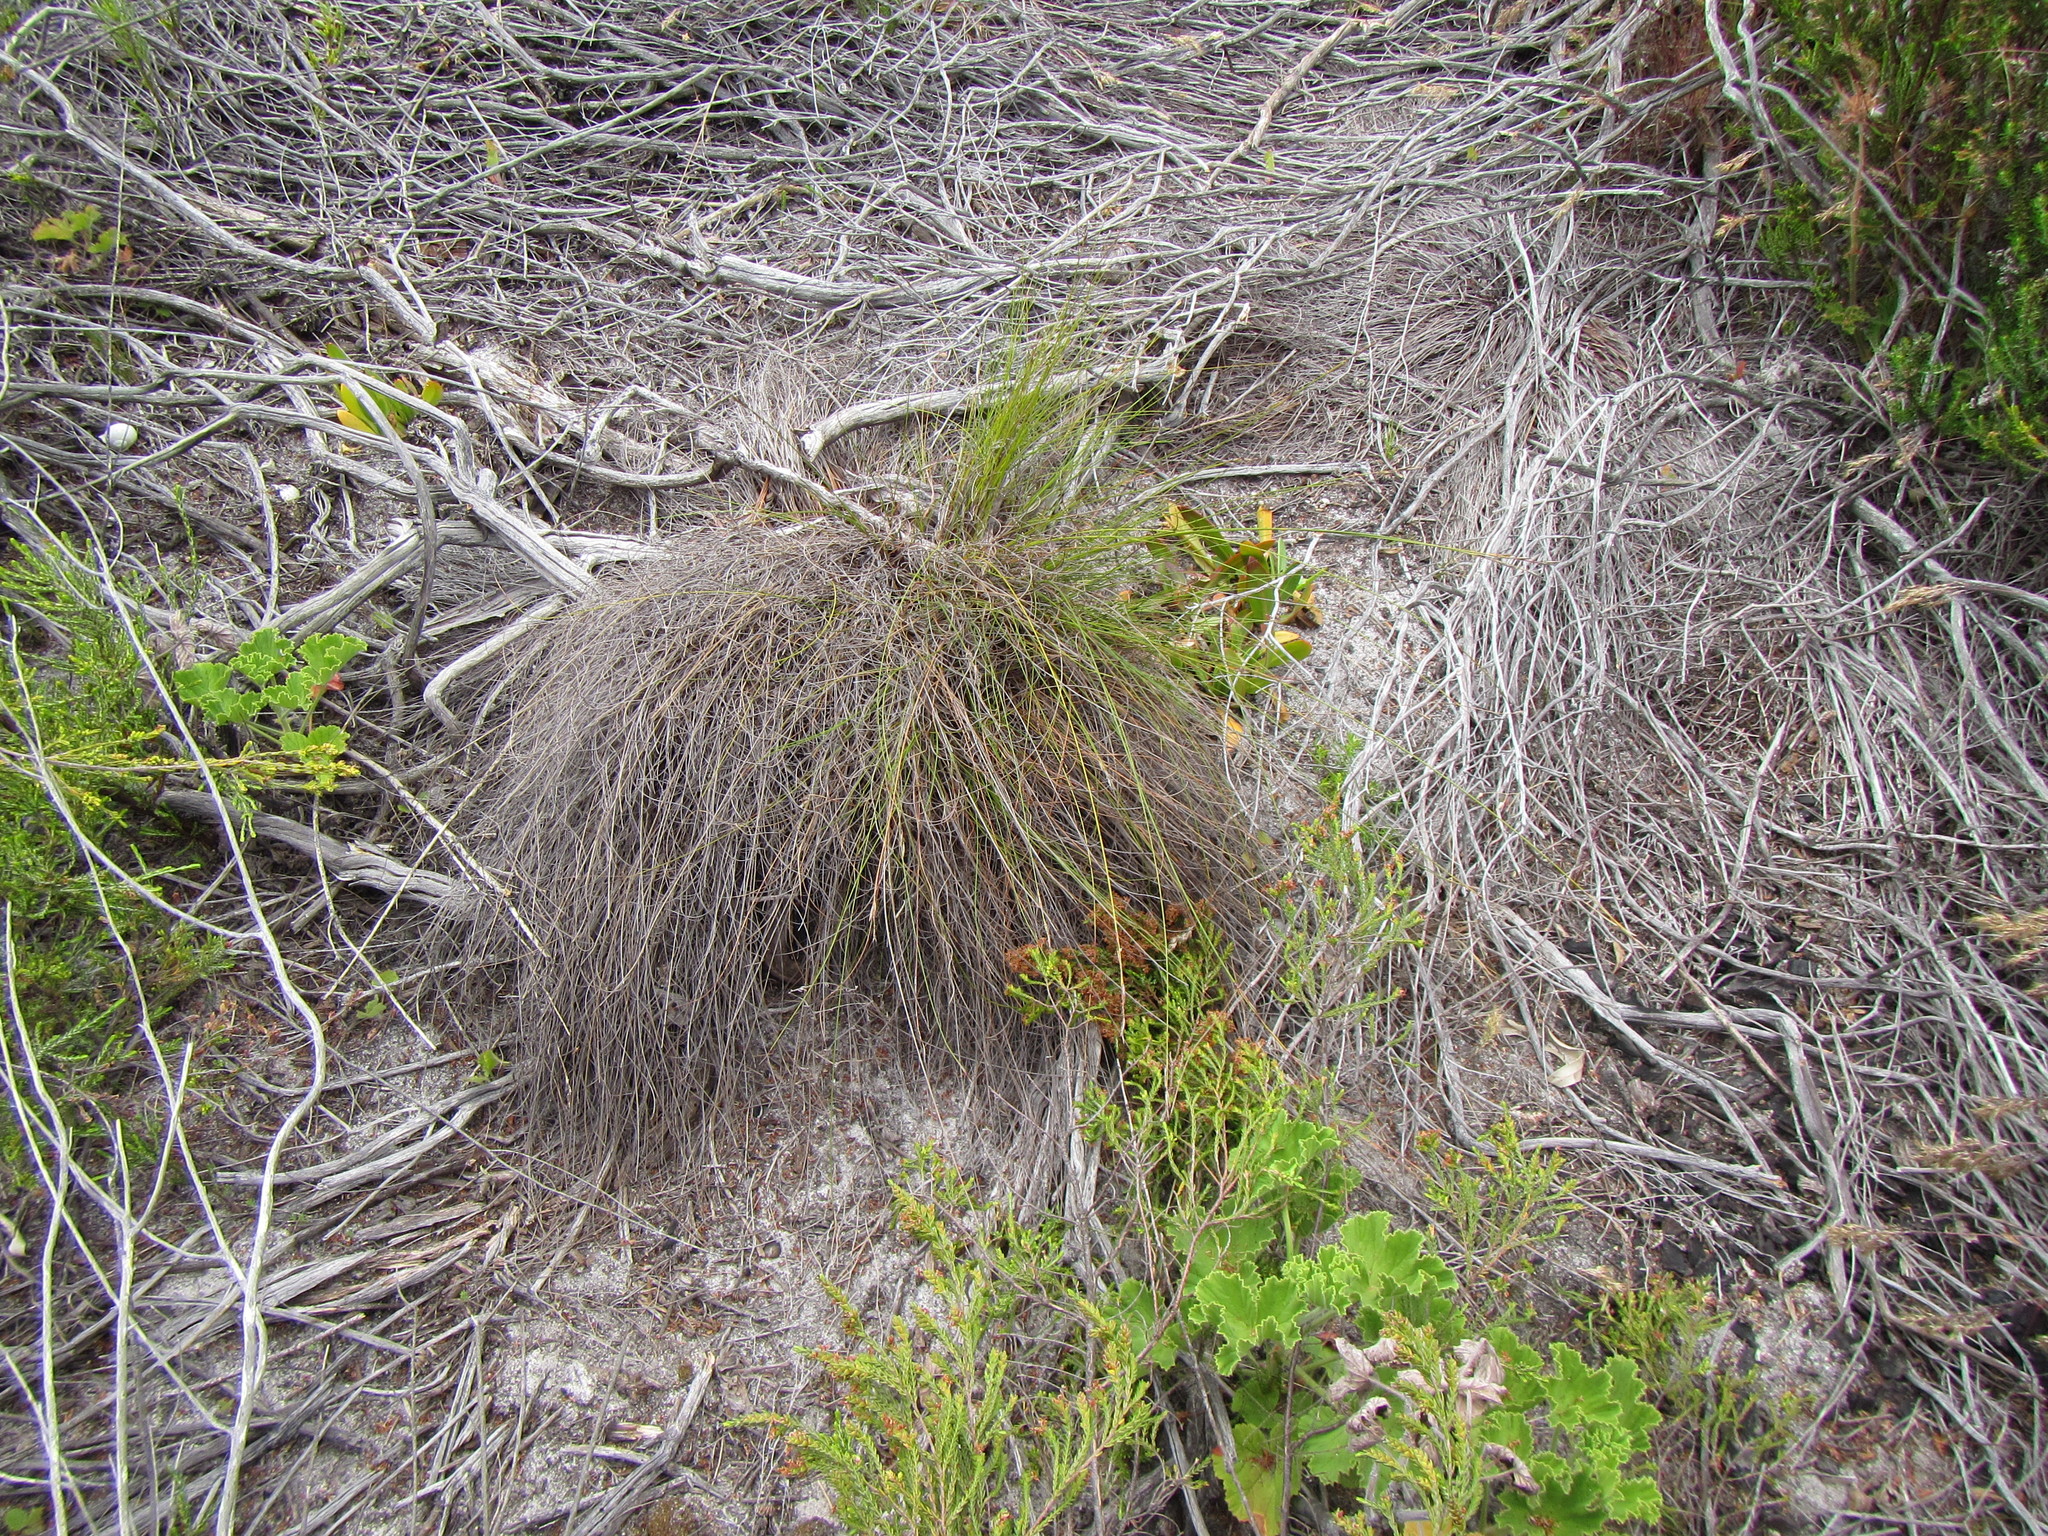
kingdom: Plantae
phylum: Tracheophyta
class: Liliopsida
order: Poales
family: Cyperaceae
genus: Schoenus
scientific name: Schoenus inconspicuus
